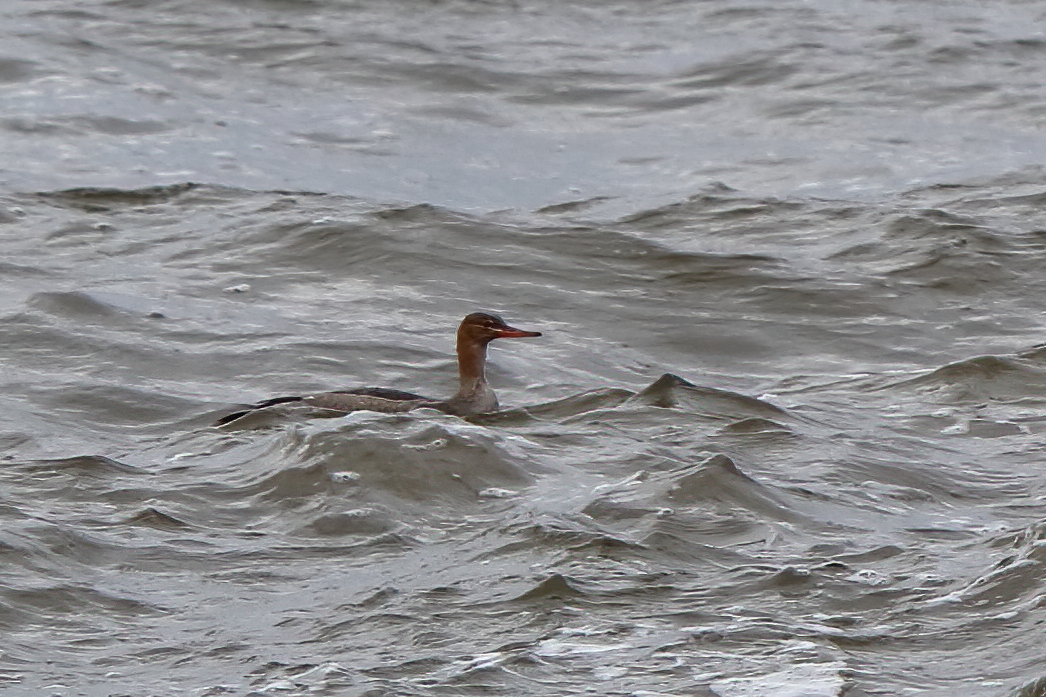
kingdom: Animalia
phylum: Chordata
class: Aves
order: Anseriformes
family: Anatidae
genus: Mergus
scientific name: Mergus serrator
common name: Red-breasted merganser
